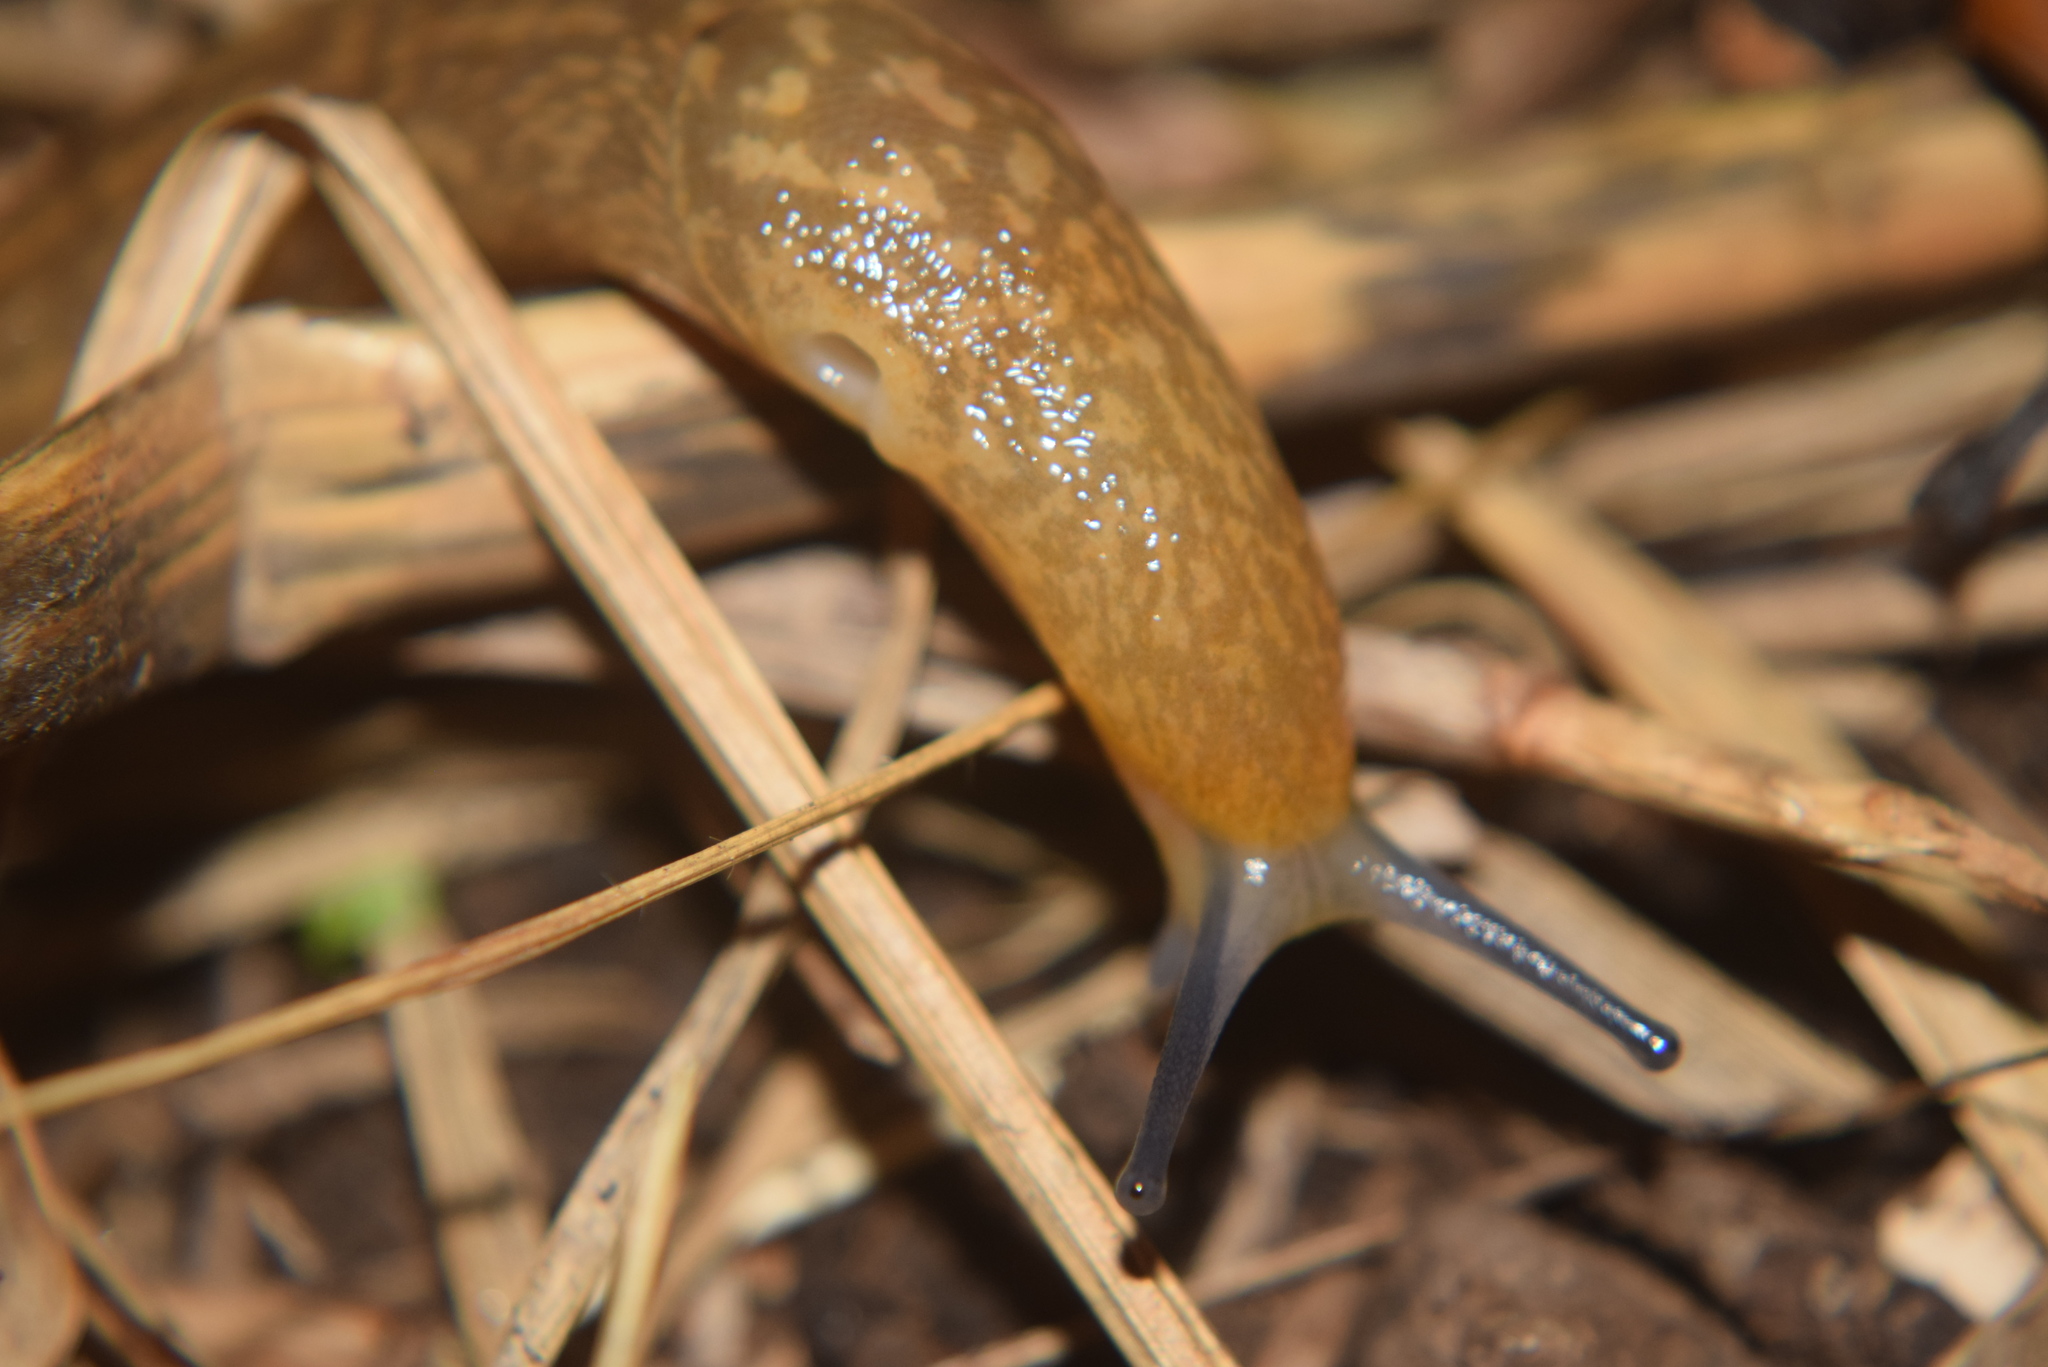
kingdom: Animalia
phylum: Mollusca
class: Gastropoda
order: Stylommatophora
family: Limacidae
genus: Limacus
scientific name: Limacus flavus
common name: Yellow gardenslug
